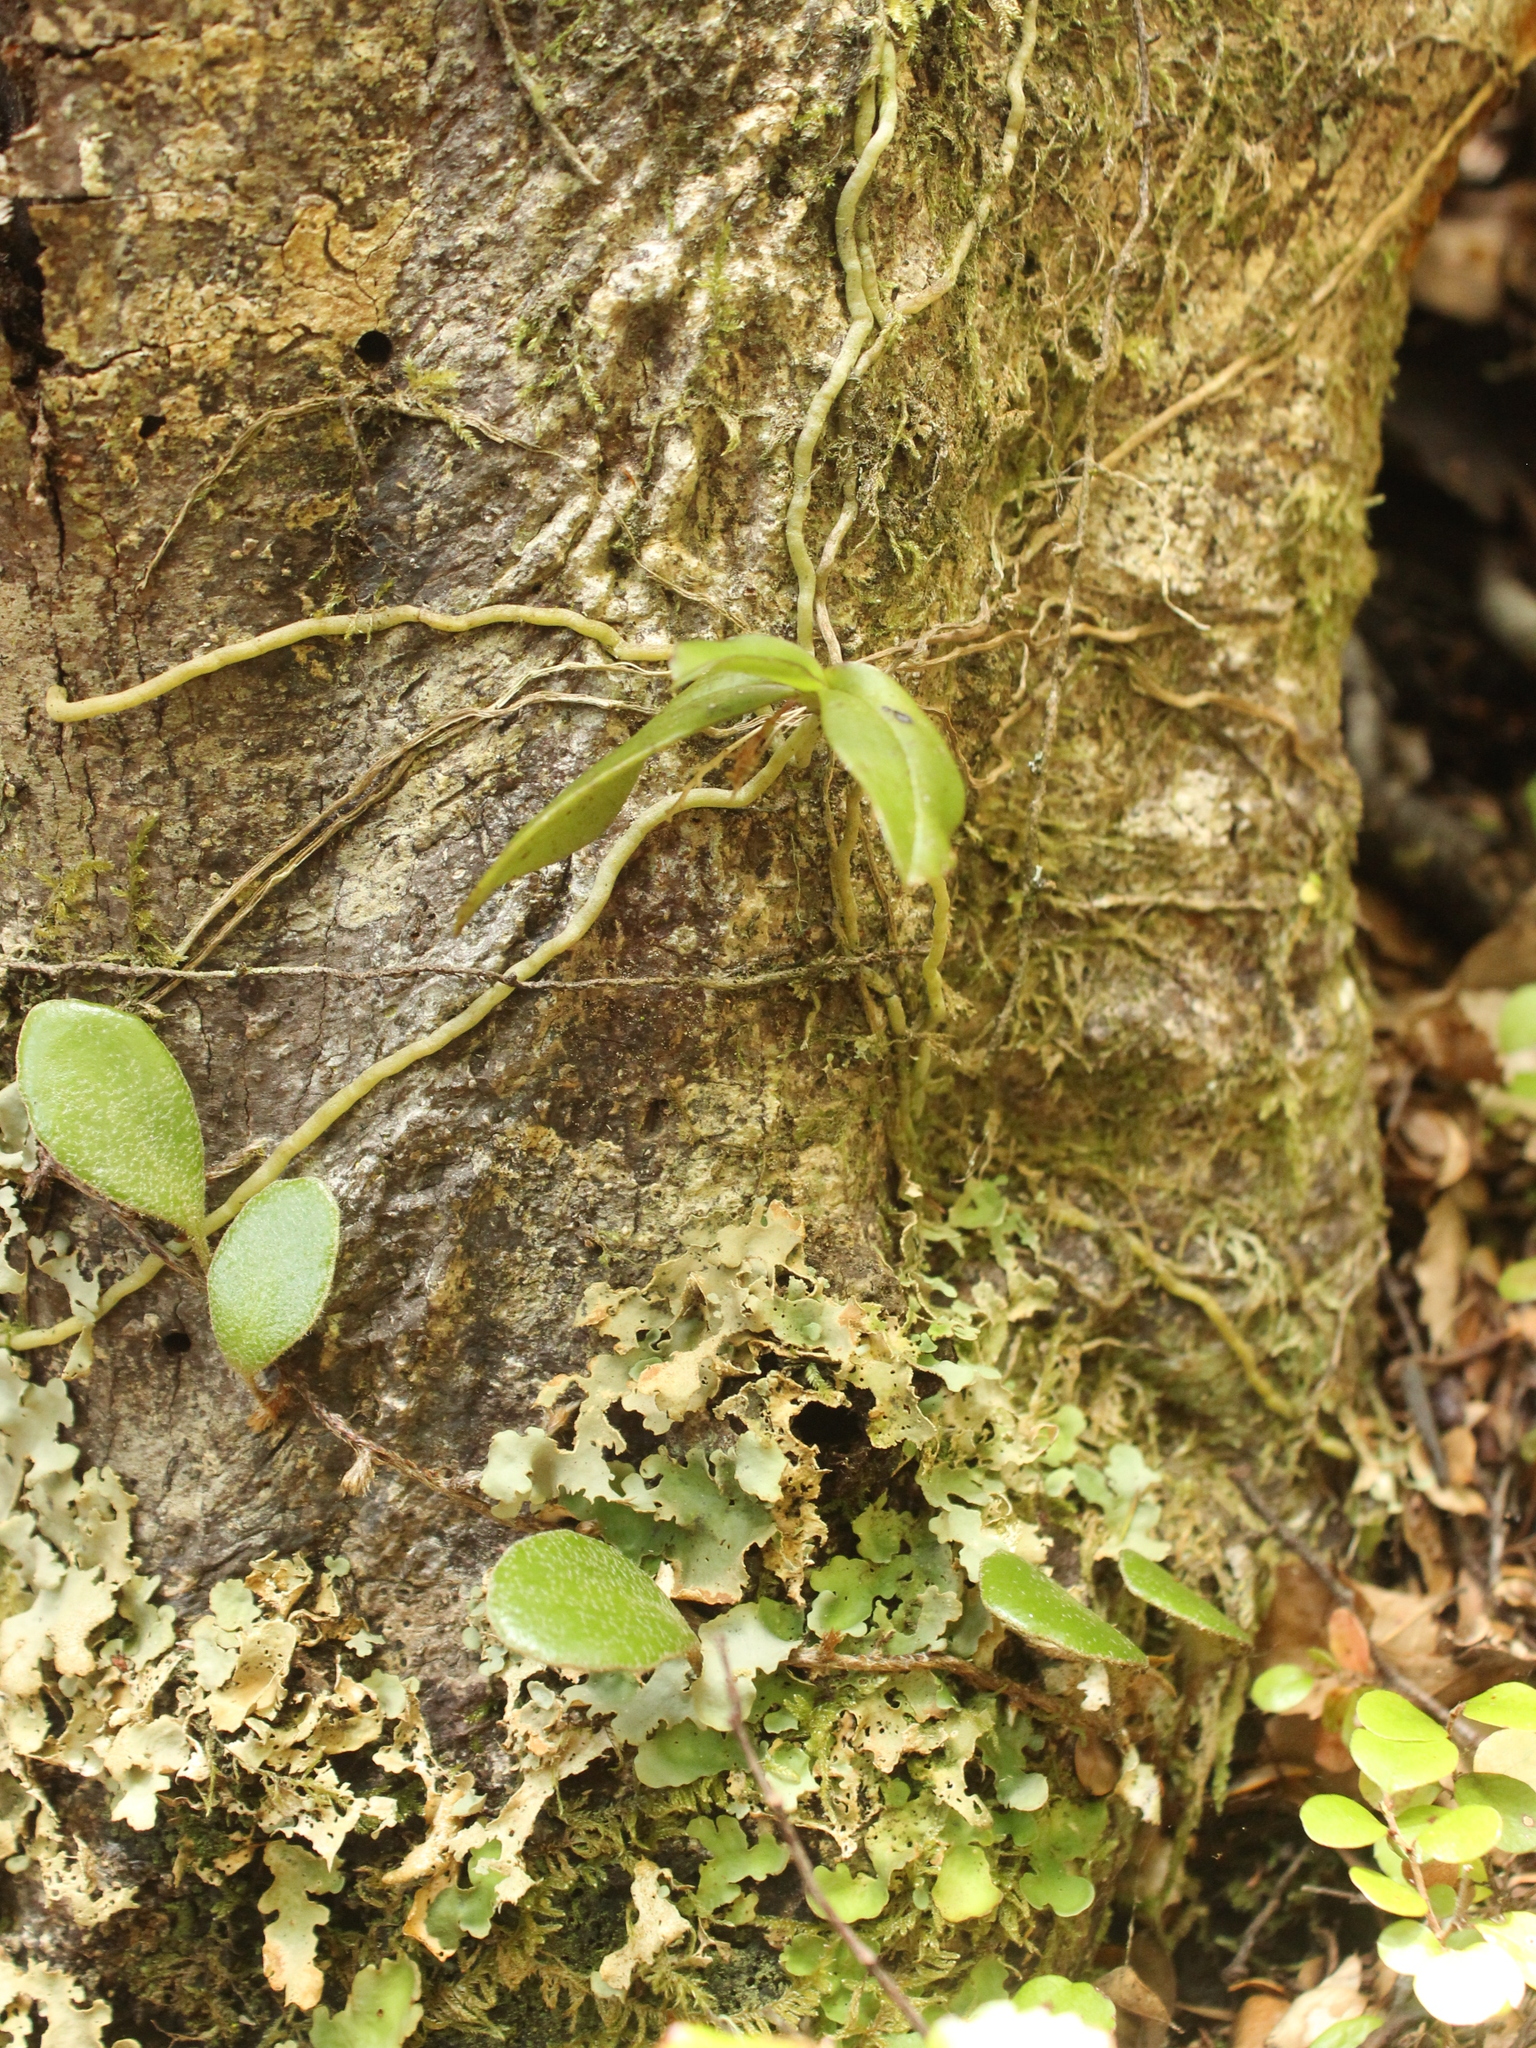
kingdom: Plantae
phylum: Tracheophyta
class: Liliopsida
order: Asparagales
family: Orchidaceae
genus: Drymoanthus
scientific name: Drymoanthus adversus
